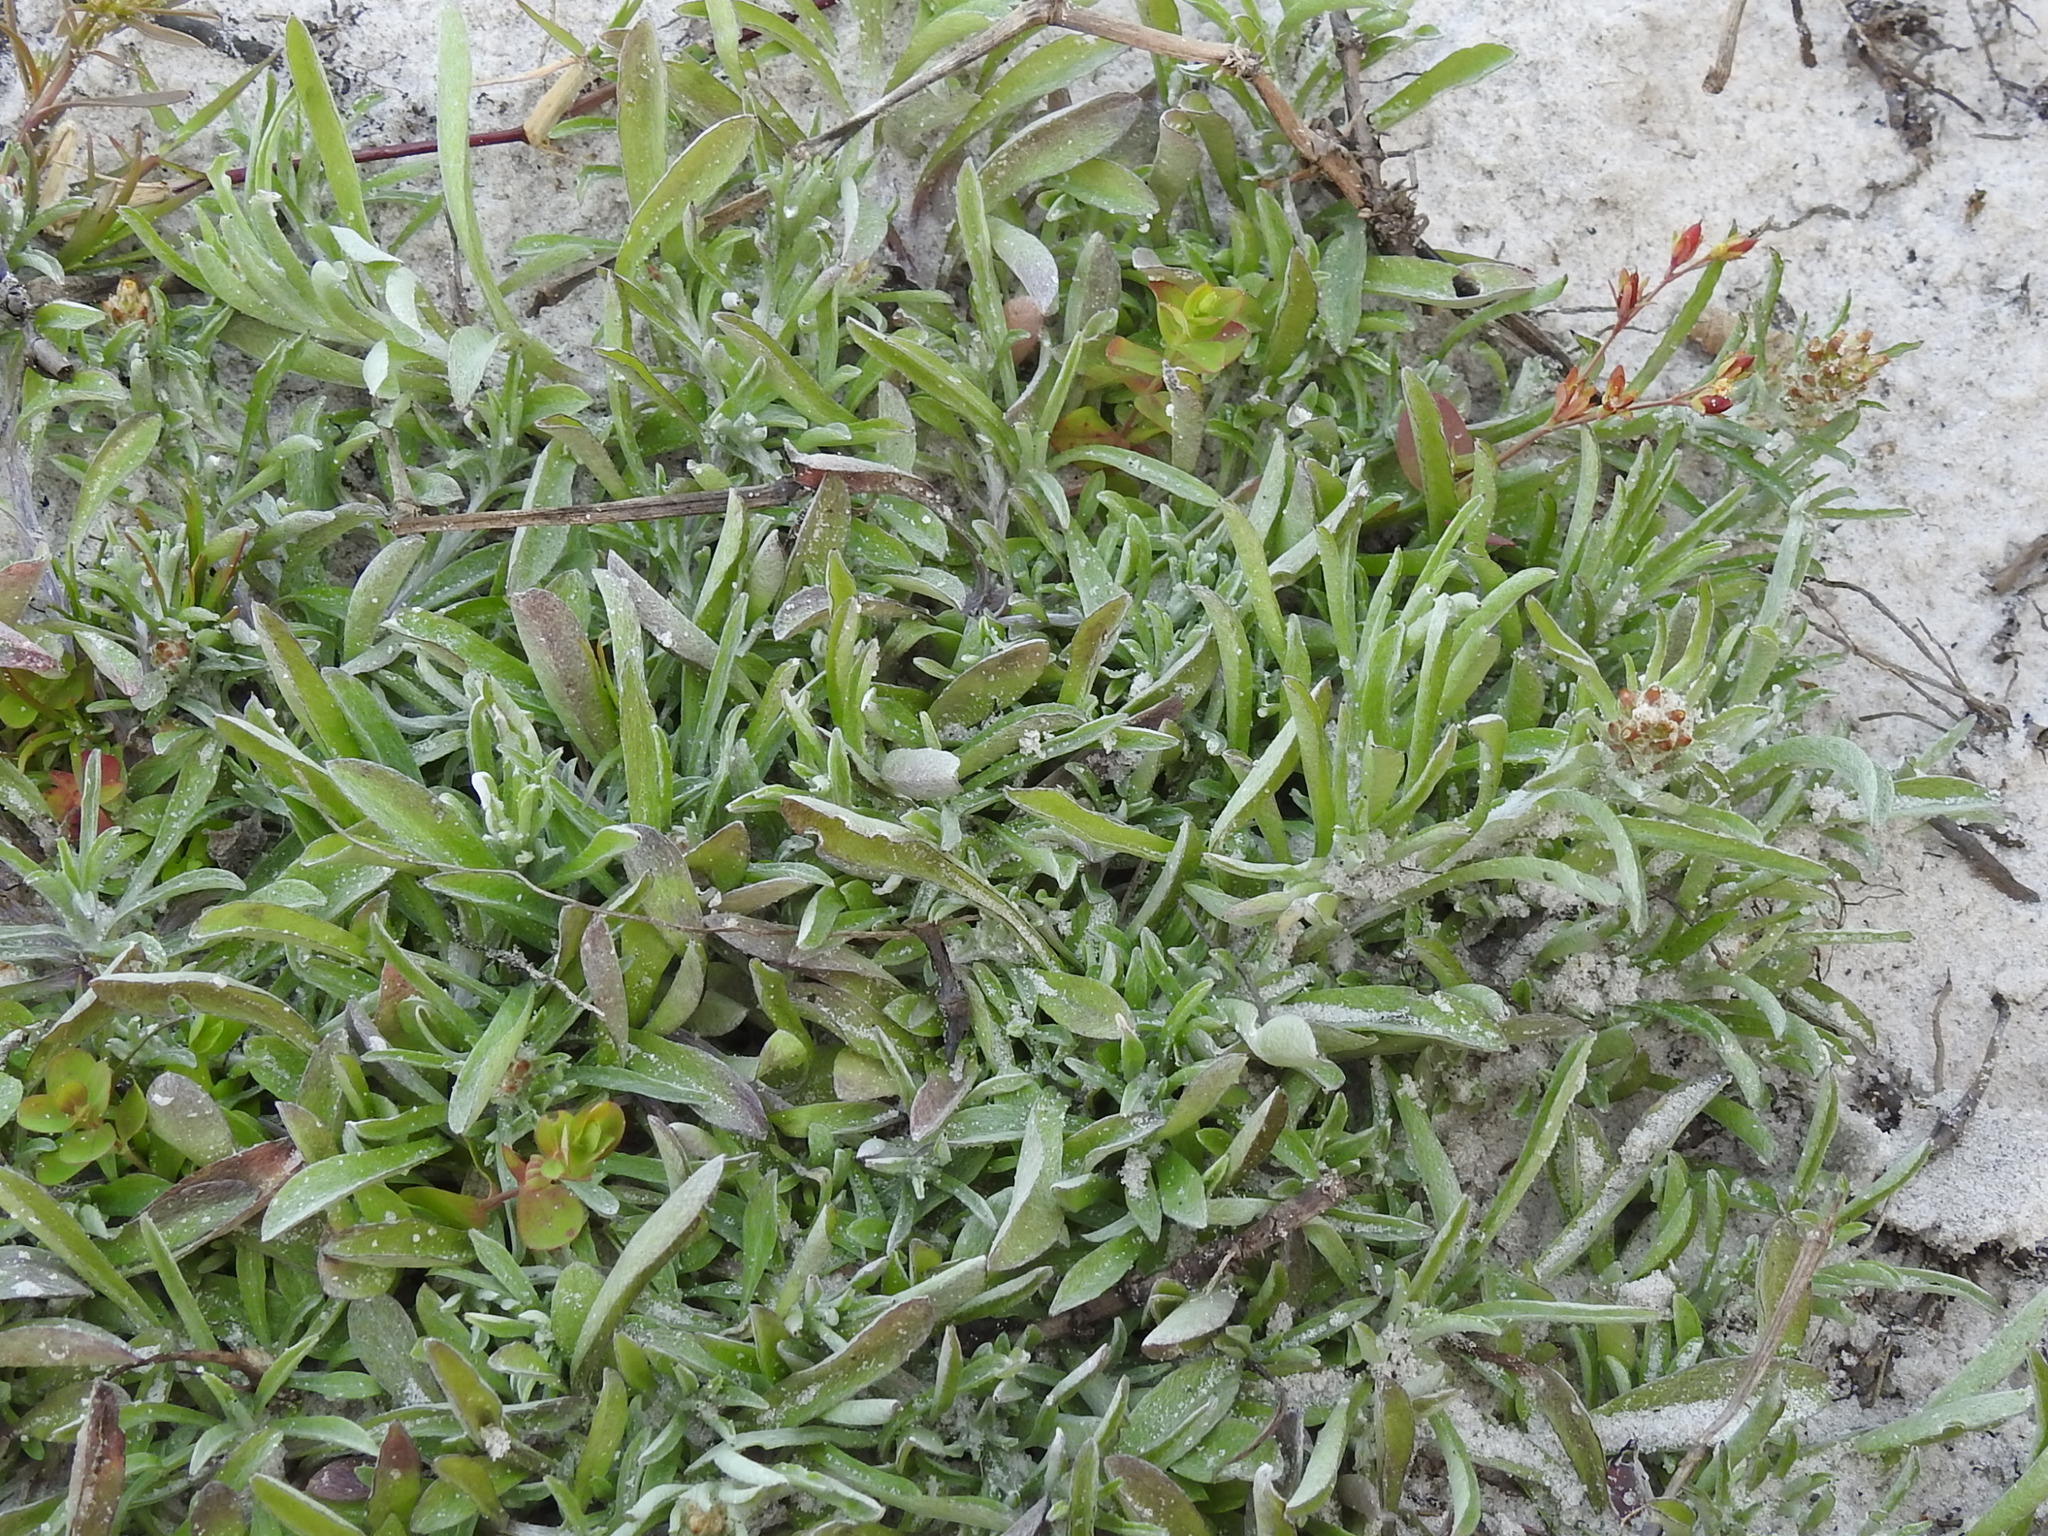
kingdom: Plantae
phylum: Tracheophyta
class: Magnoliopsida
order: Asterales
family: Asteraceae
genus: Gamochaeta
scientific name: Gamochaeta antillana
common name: Delicate everlasting
